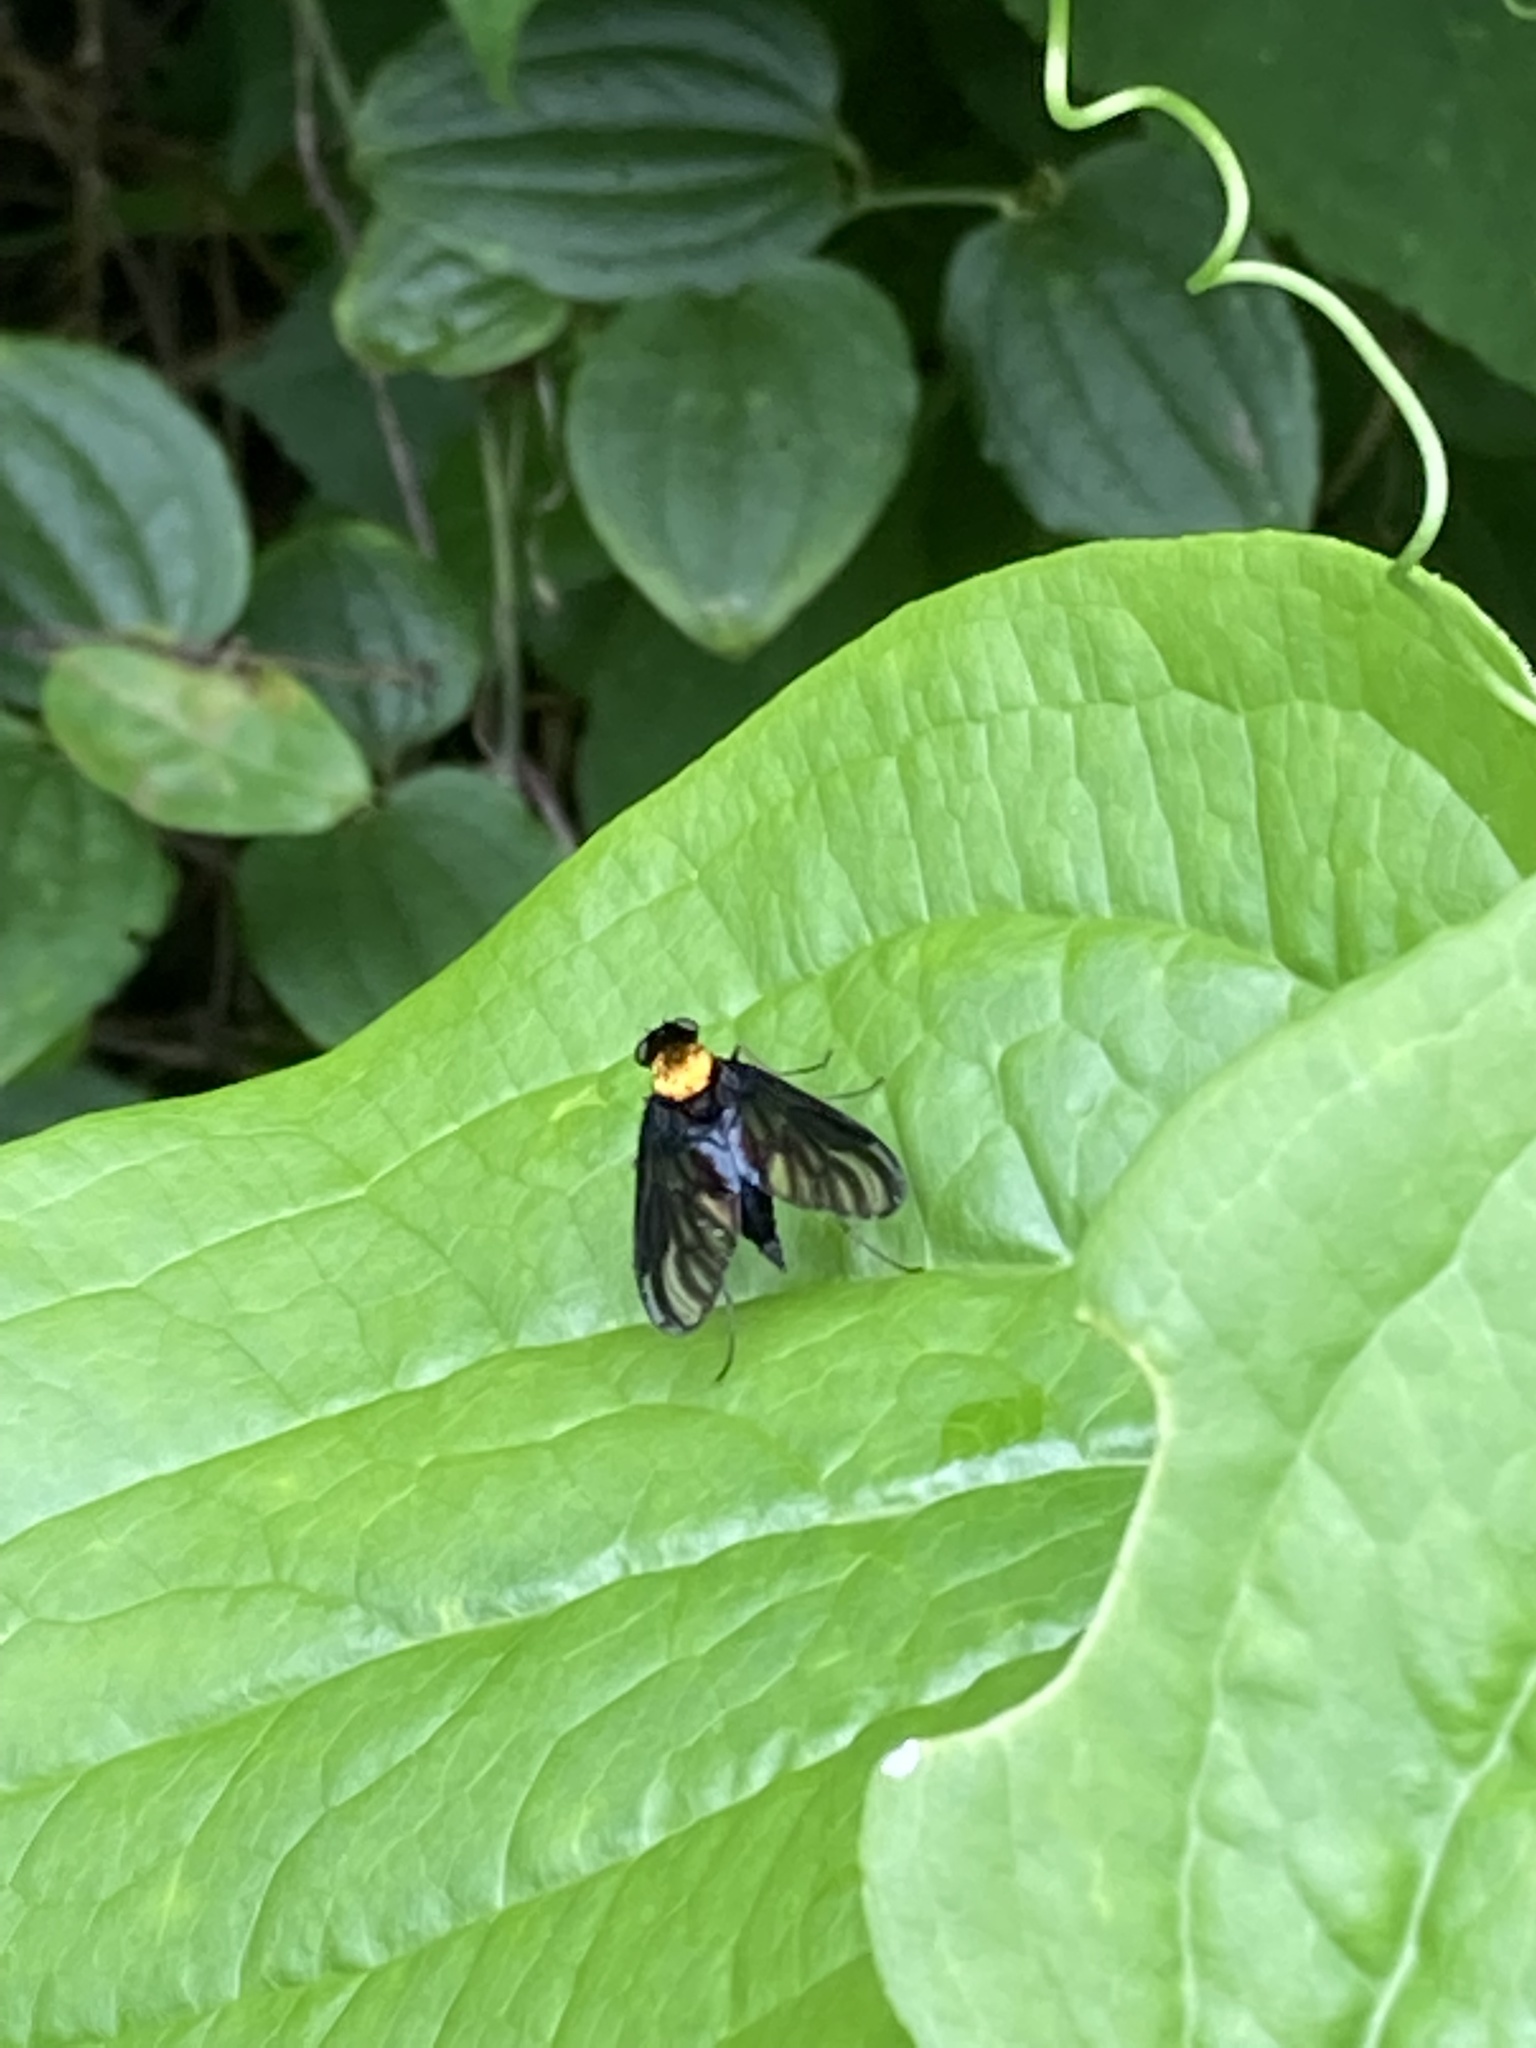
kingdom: Animalia
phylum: Arthropoda
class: Insecta
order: Diptera
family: Rhagionidae
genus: Chrysopilus
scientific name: Chrysopilus thoracicus
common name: Golden-backed snipe fly
